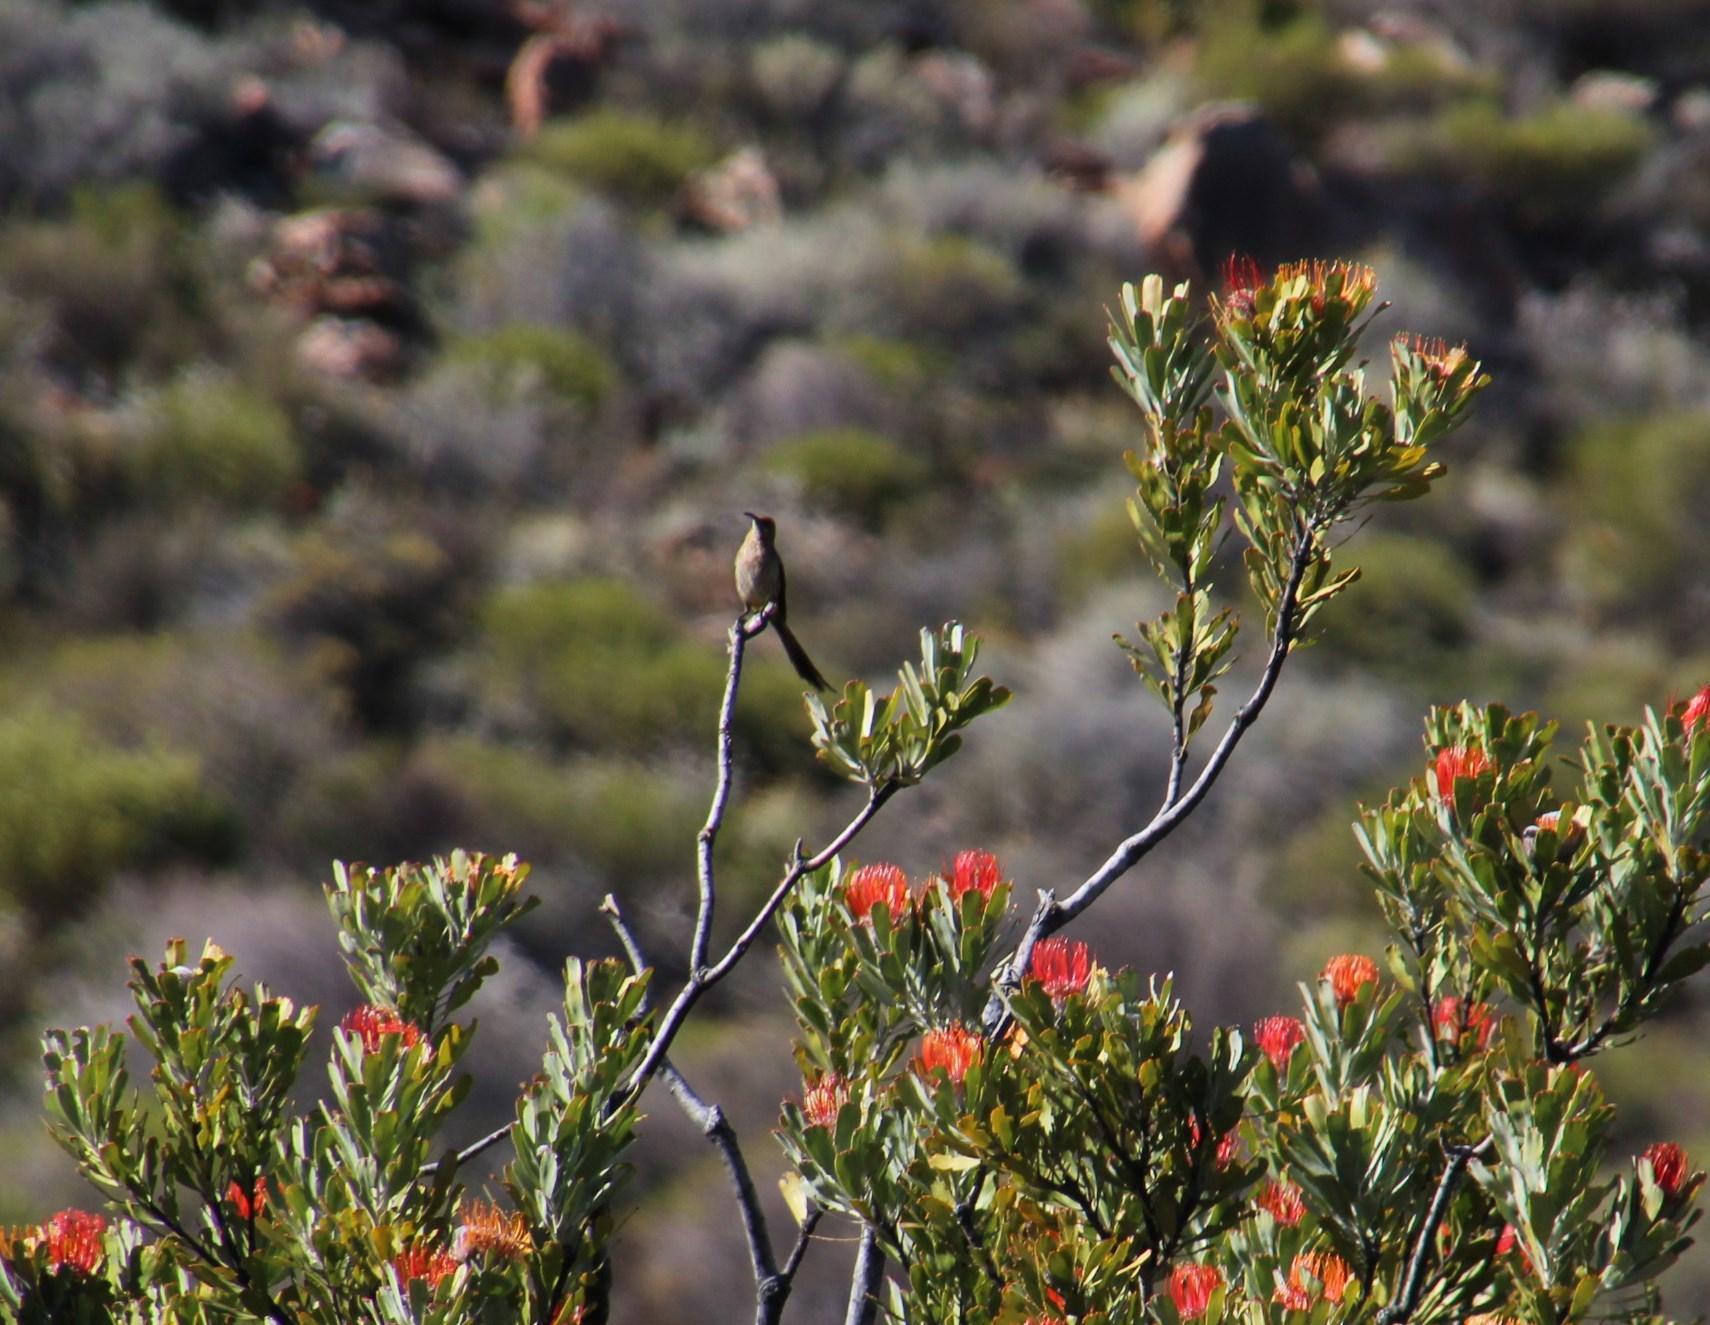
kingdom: Plantae
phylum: Tracheophyta
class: Magnoliopsida
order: Proteales
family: Proteaceae
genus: Leucospermum
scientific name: Leucospermum praemorsum
